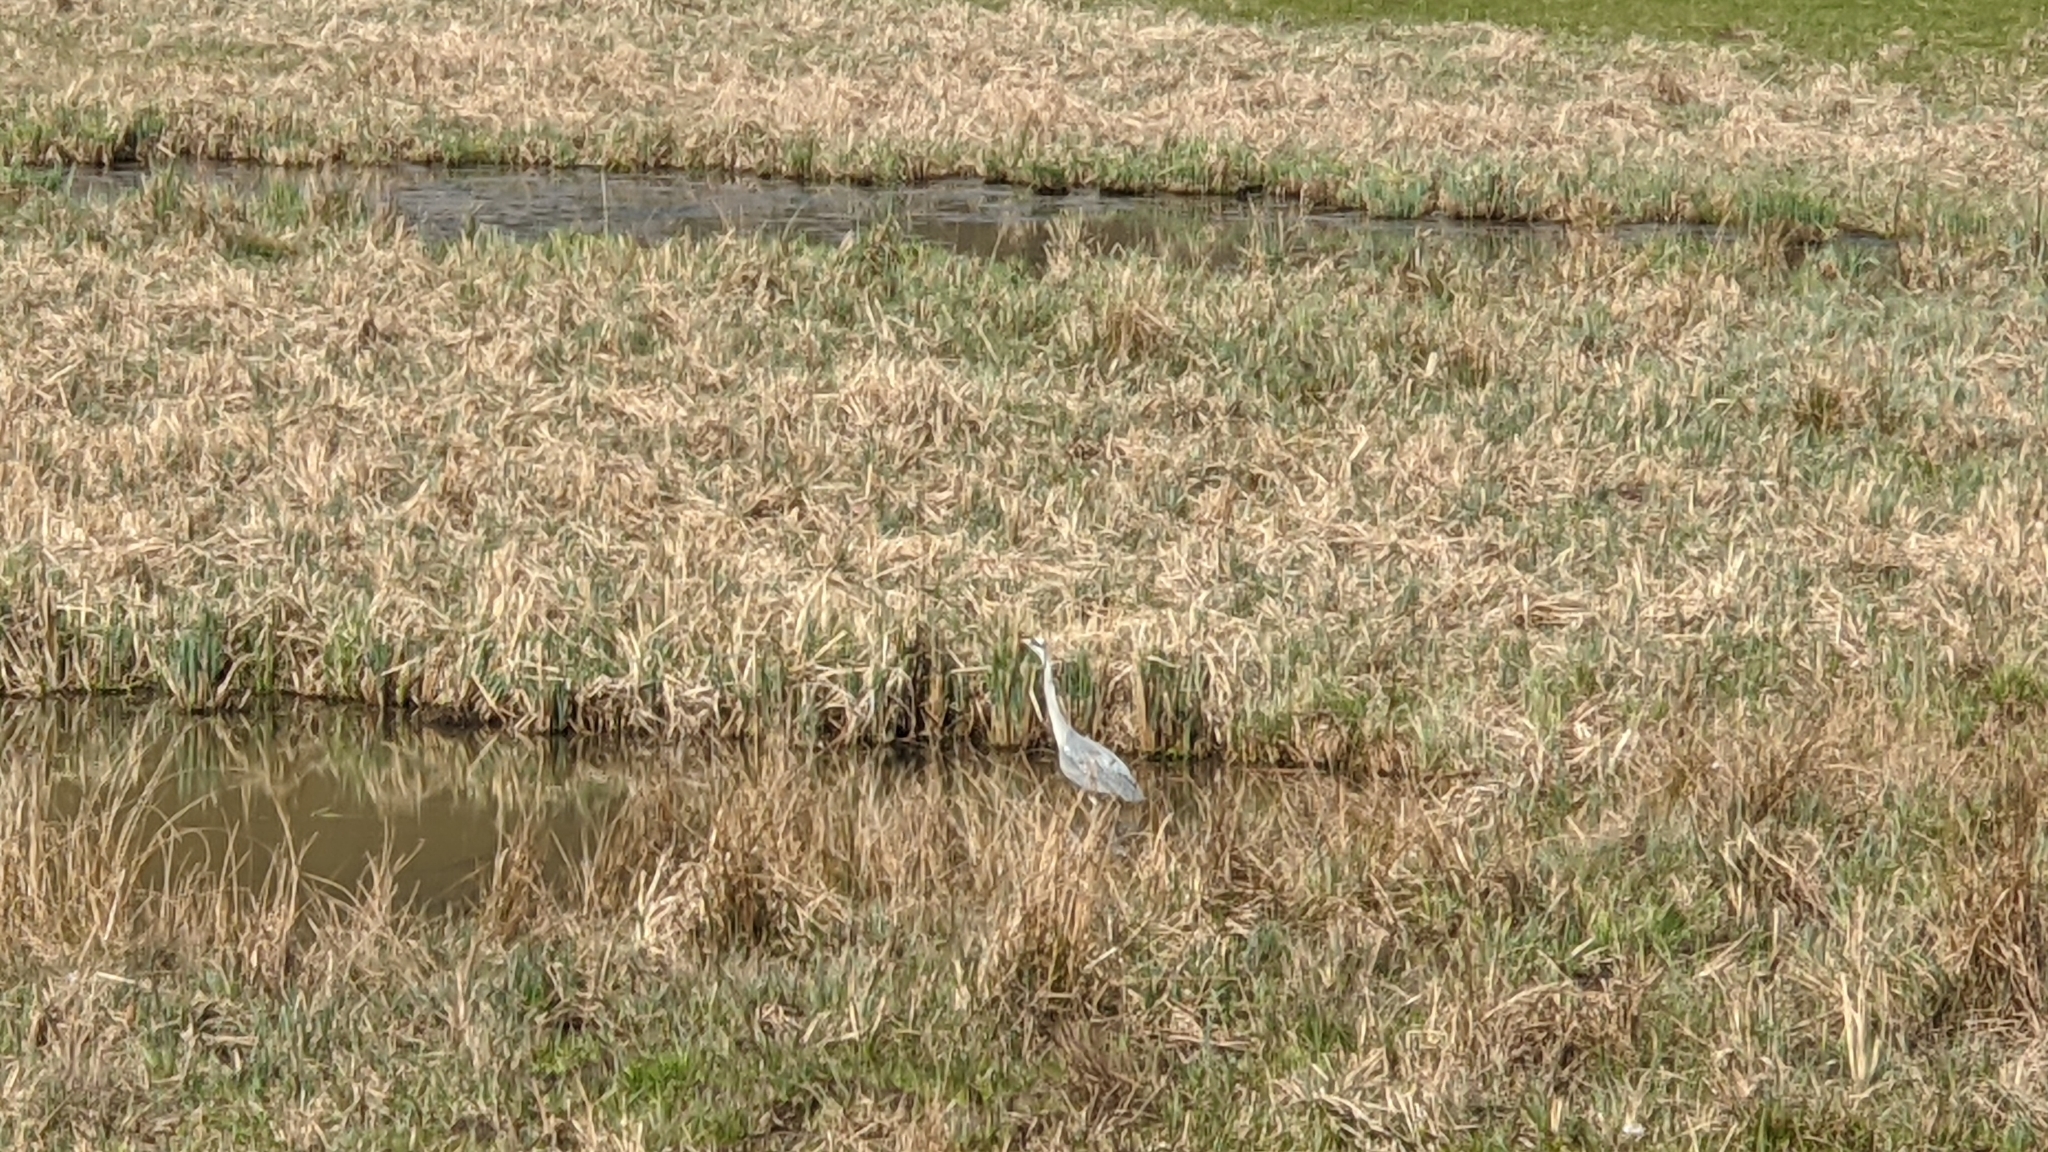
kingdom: Animalia
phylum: Chordata
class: Aves
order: Pelecaniformes
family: Ardeidae
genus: Ardea
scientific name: Ardea cinerea
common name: Grey heron
